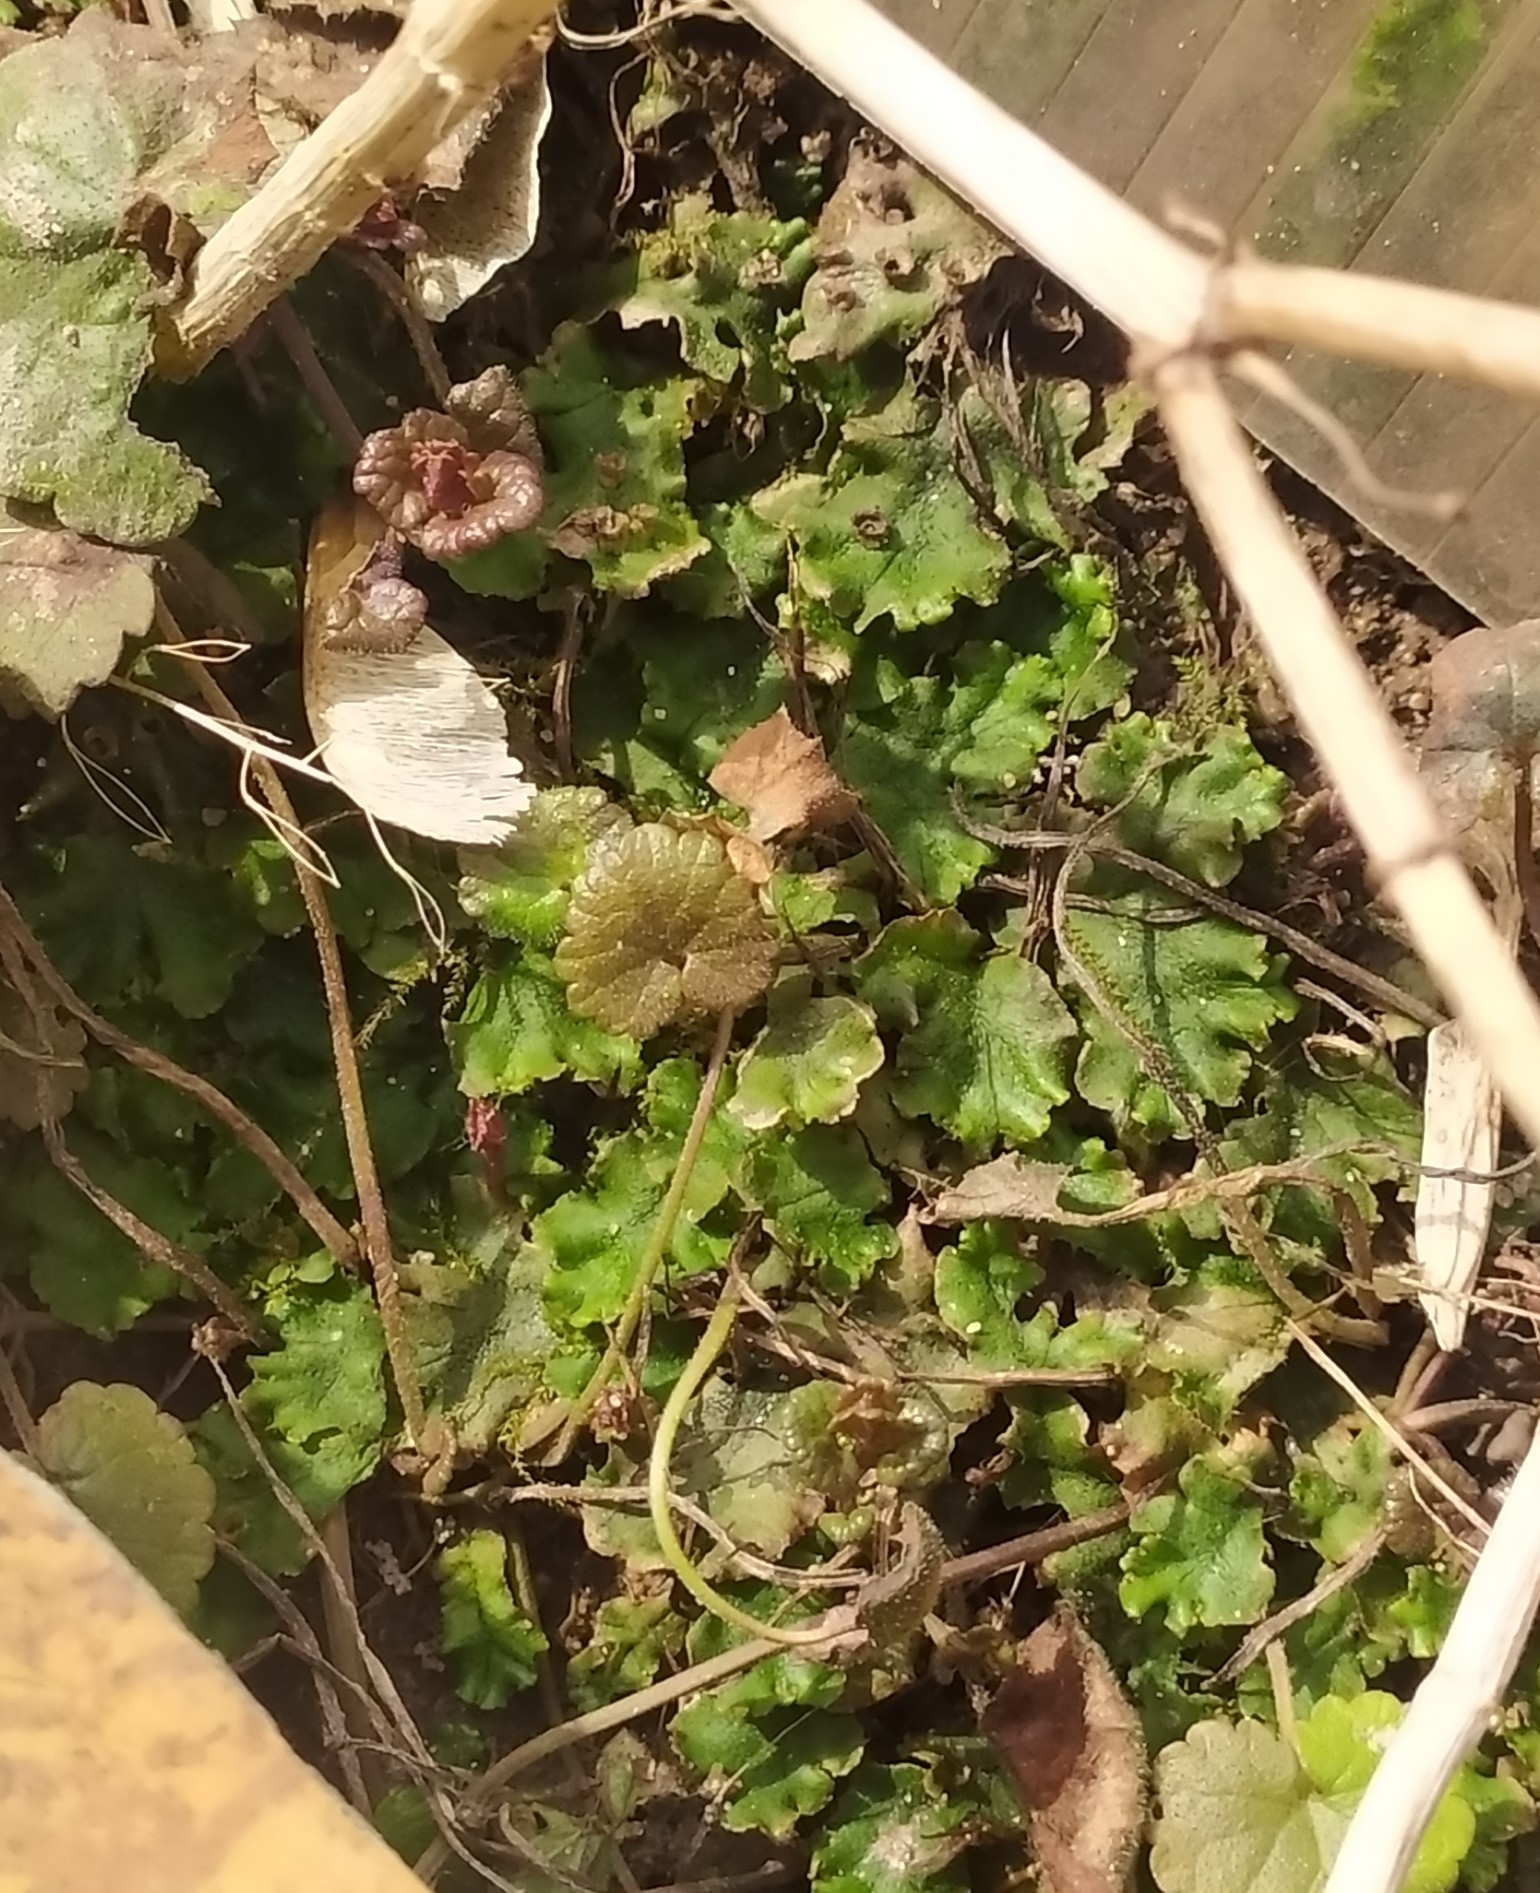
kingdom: Plantae
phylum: Marchantiophyta
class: Marchantiopsida
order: Marchantiales
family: Marchantiaceae
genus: Marchantia
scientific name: Marchantia polymorpha
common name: Common liverwort
